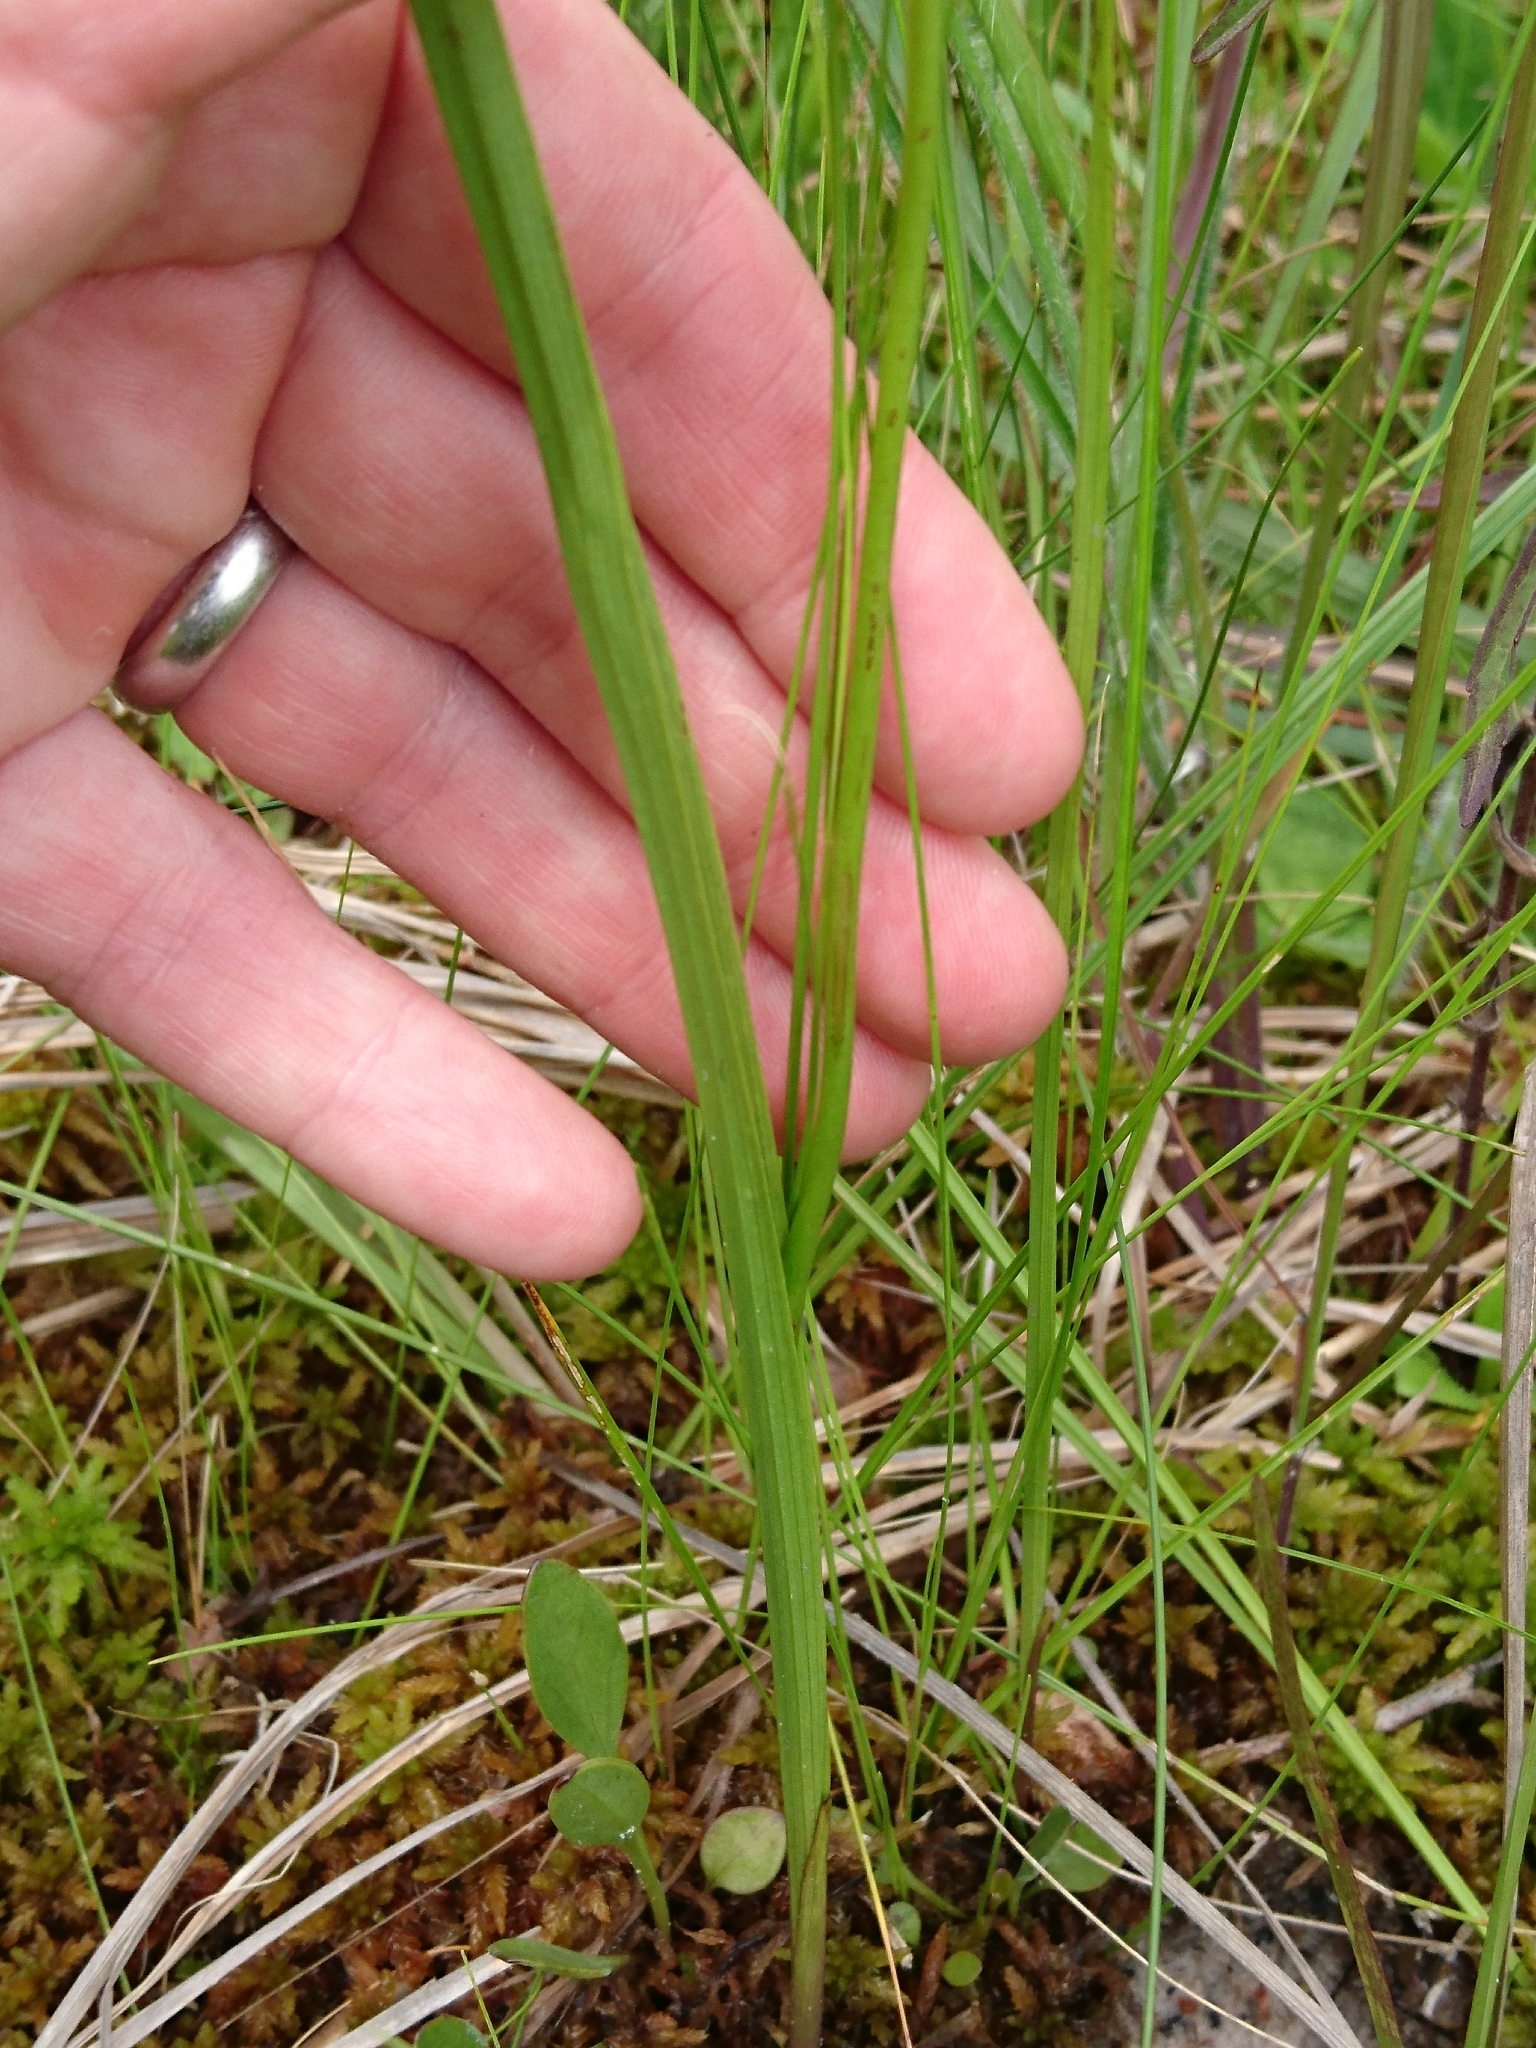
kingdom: Plantae
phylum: Tracheophyta
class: Liliopsida
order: Asparagales
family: Orchidaceae
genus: Calopogon
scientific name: Calopogon tuberosus
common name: Grass-pink
